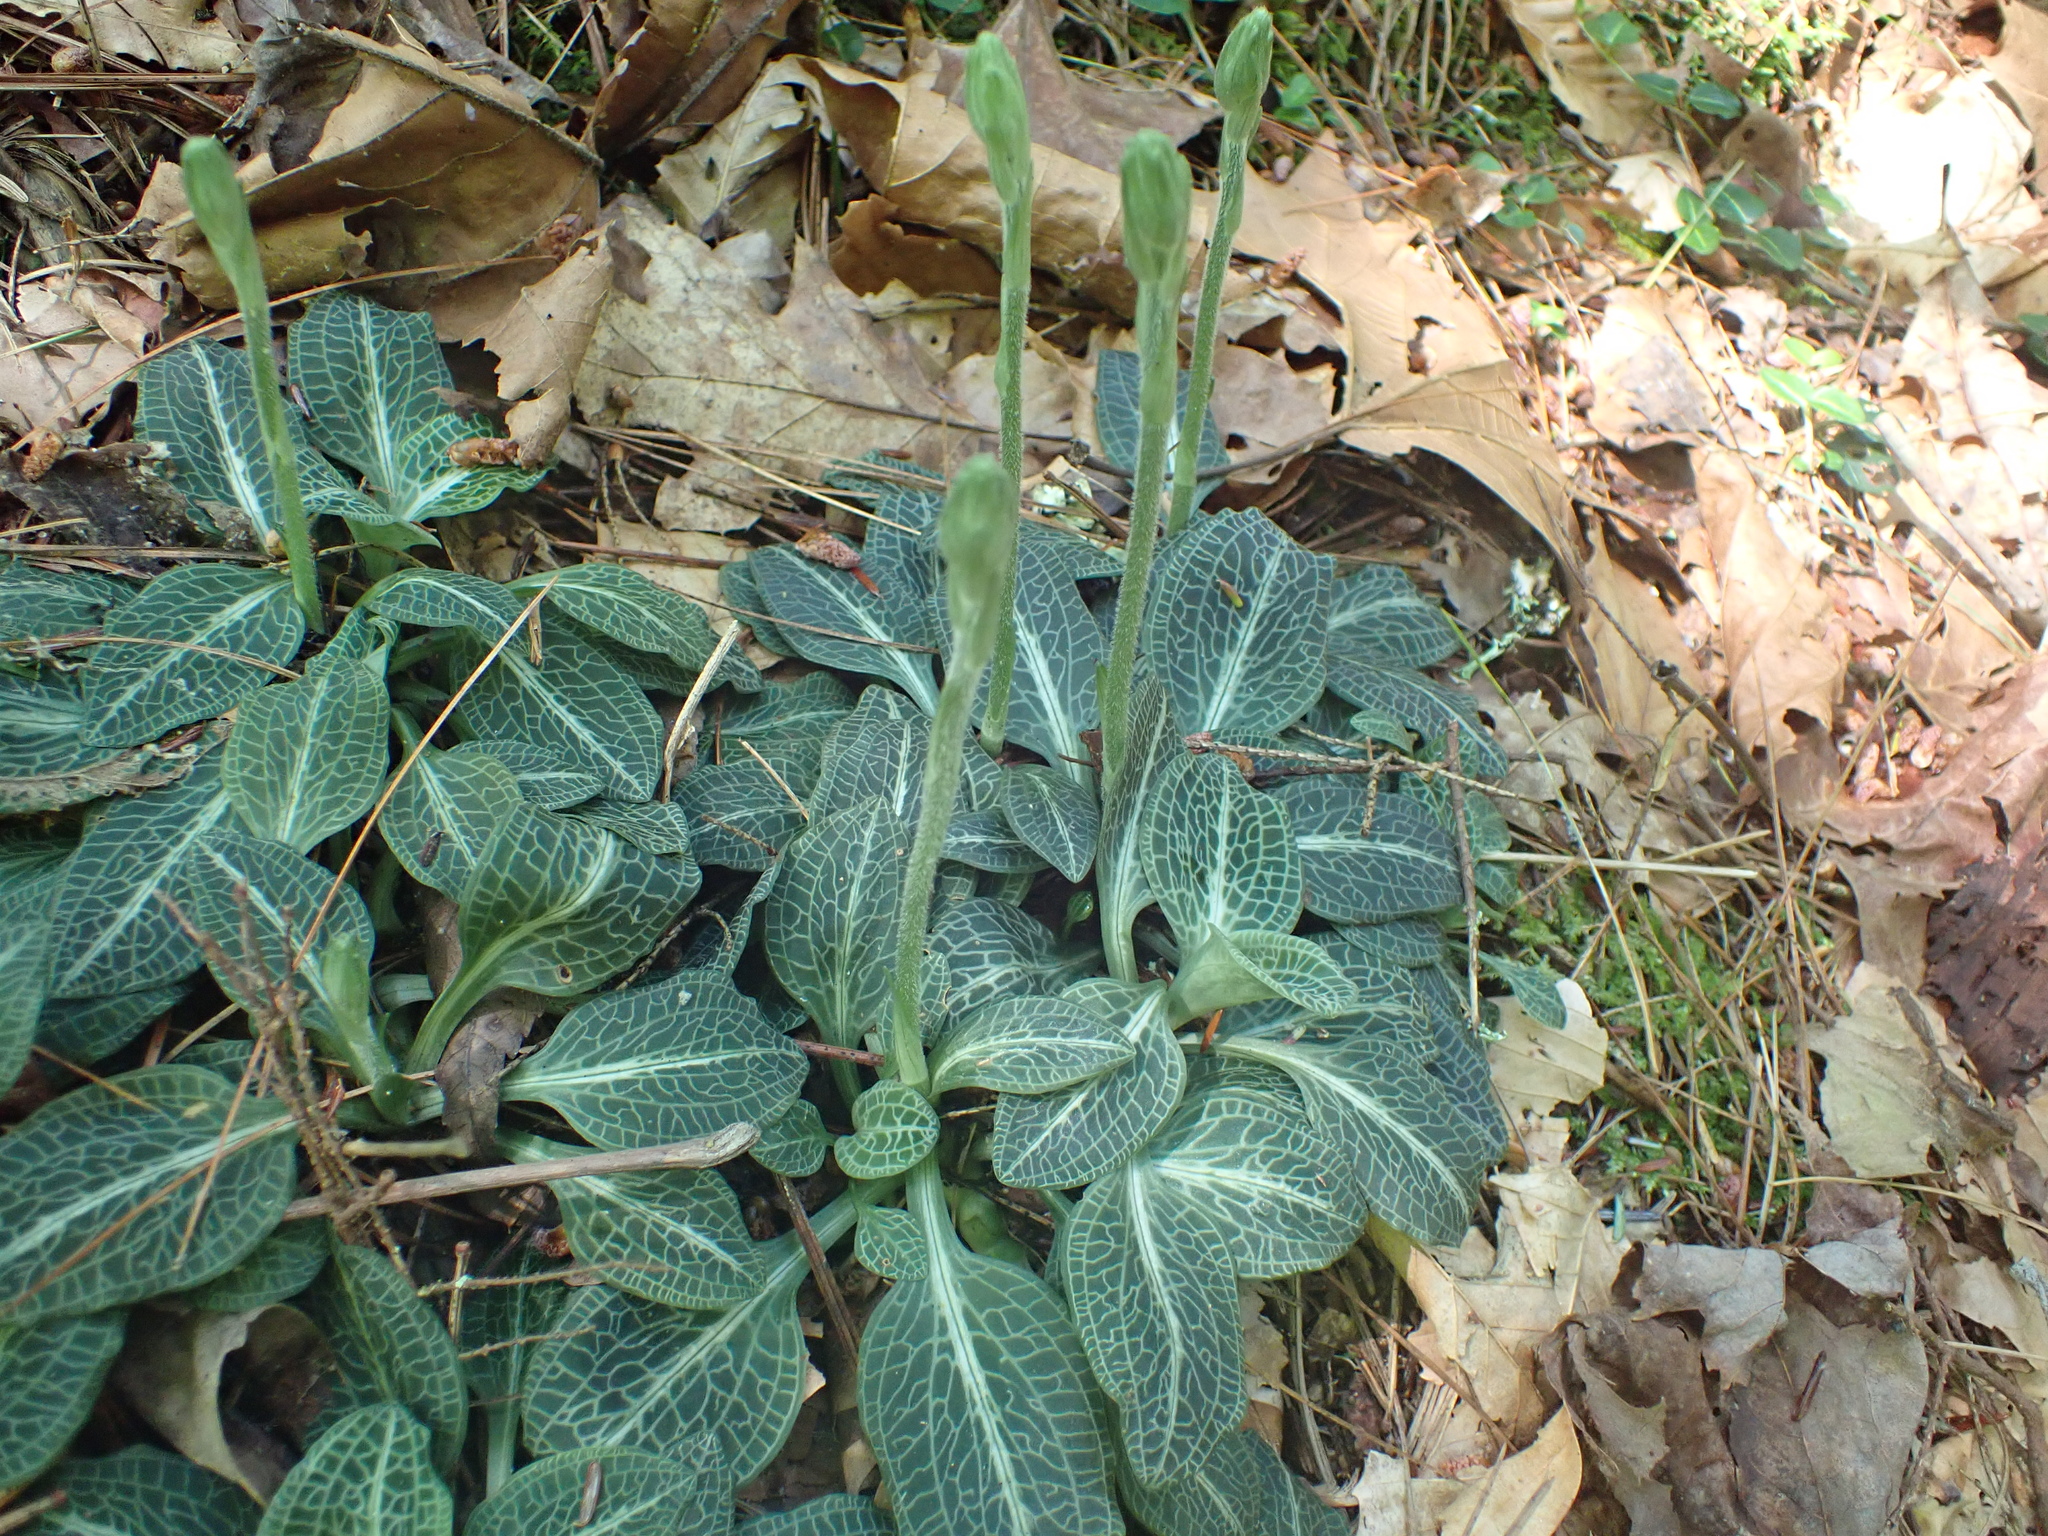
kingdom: Plantae
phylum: Tracheophyta
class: Liliopsida
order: Asparagales
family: Orchidaceae
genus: Goodyera
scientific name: Goodyera pubescens
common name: Downy rattlesnake-plantain
